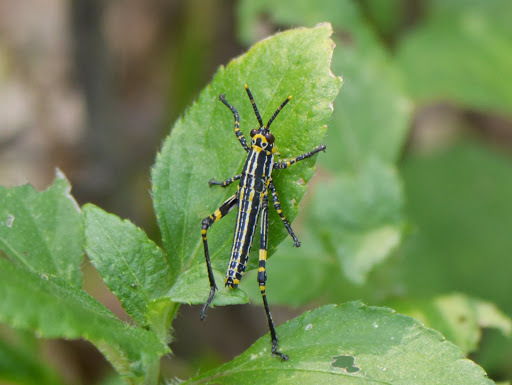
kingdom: Animalia
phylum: Arthropoda
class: Insecta
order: Orthoptera
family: Pyrgomorphidae
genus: Zonocerus
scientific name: Zonocerus variegatus
